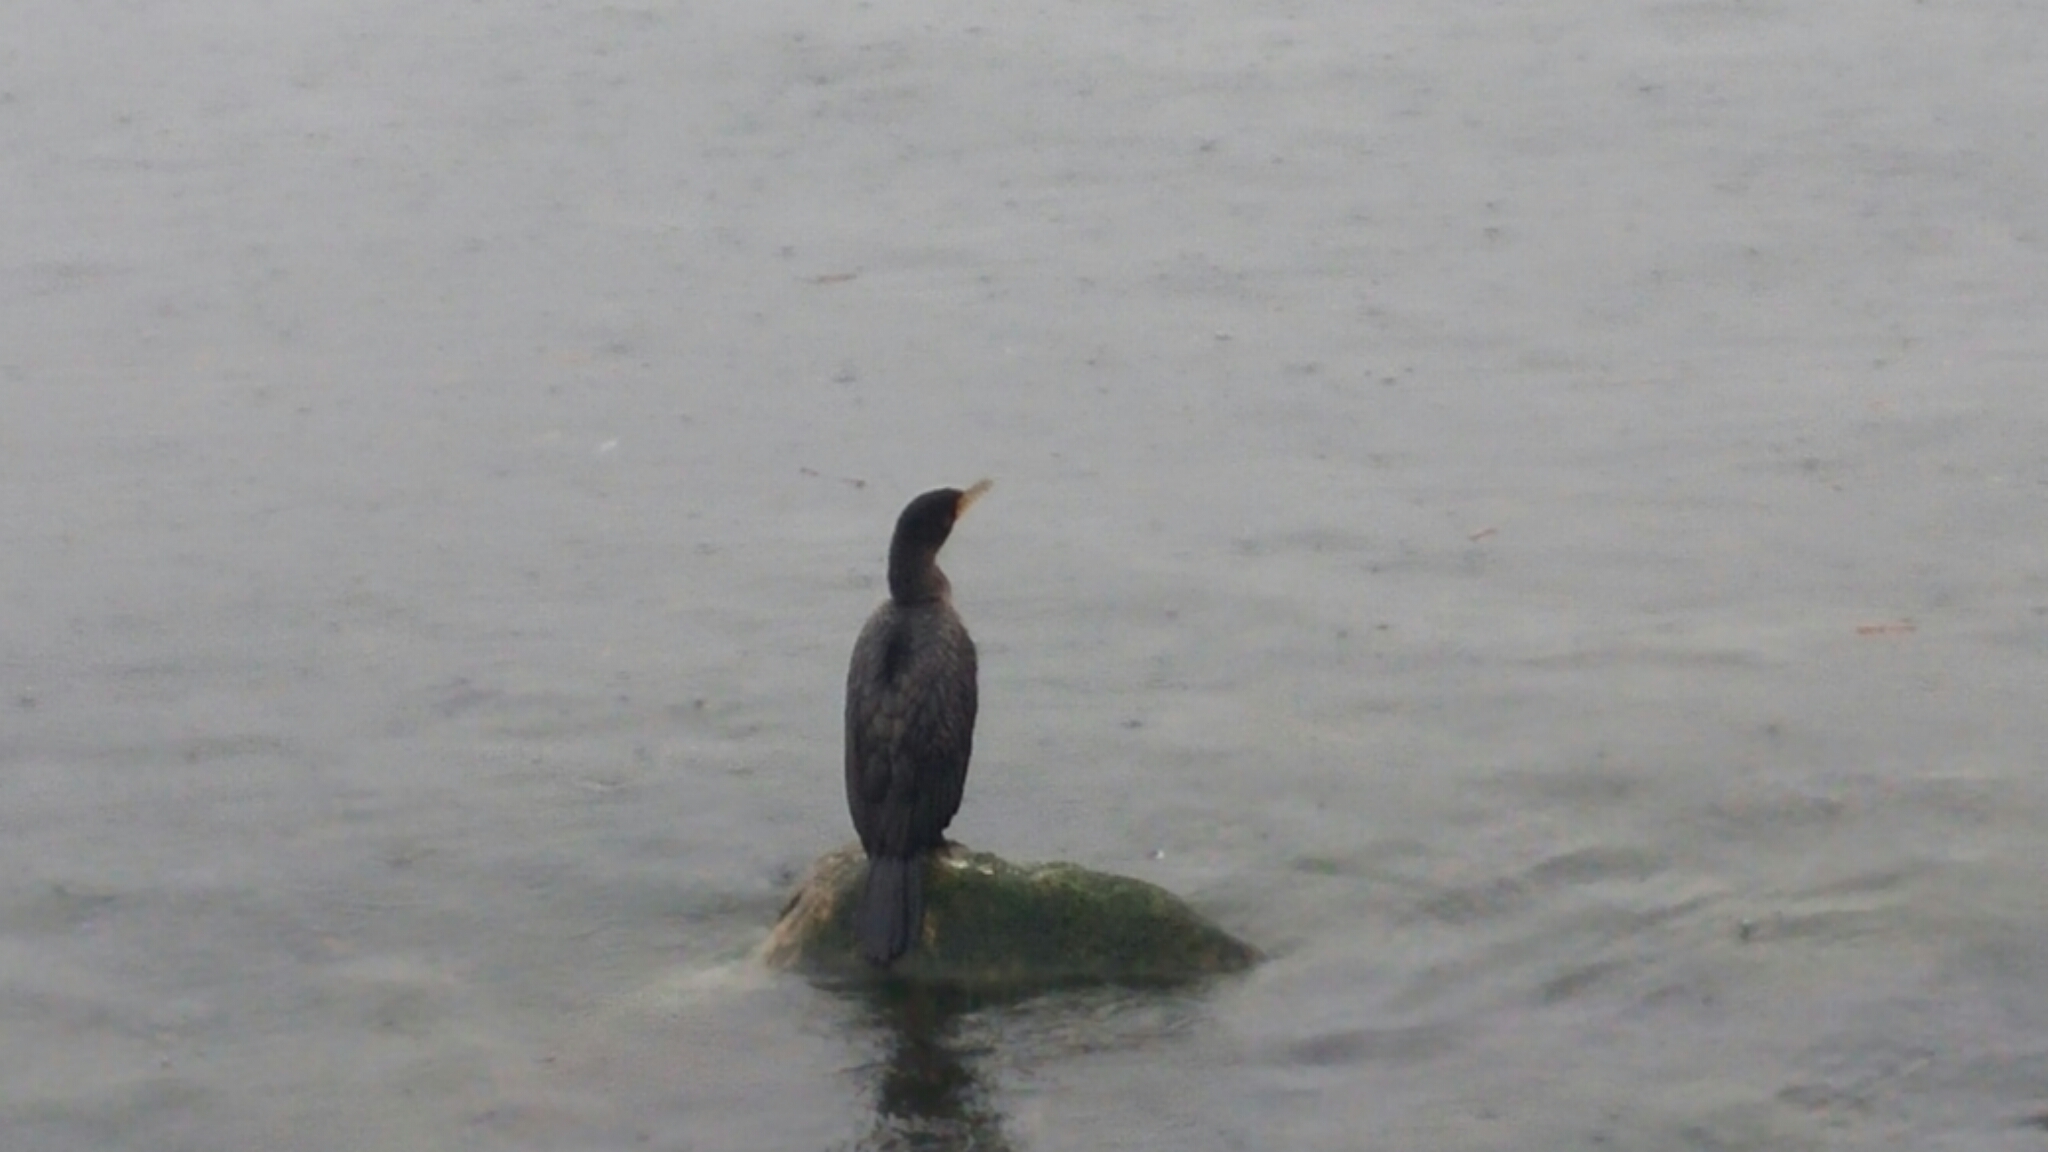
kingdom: Animalia
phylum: Chordata
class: Aves
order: Suliformes
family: Phalacrocoracidae
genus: Phalacrocorax
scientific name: Phalacrocorax auritus
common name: Double-crested cormorant
